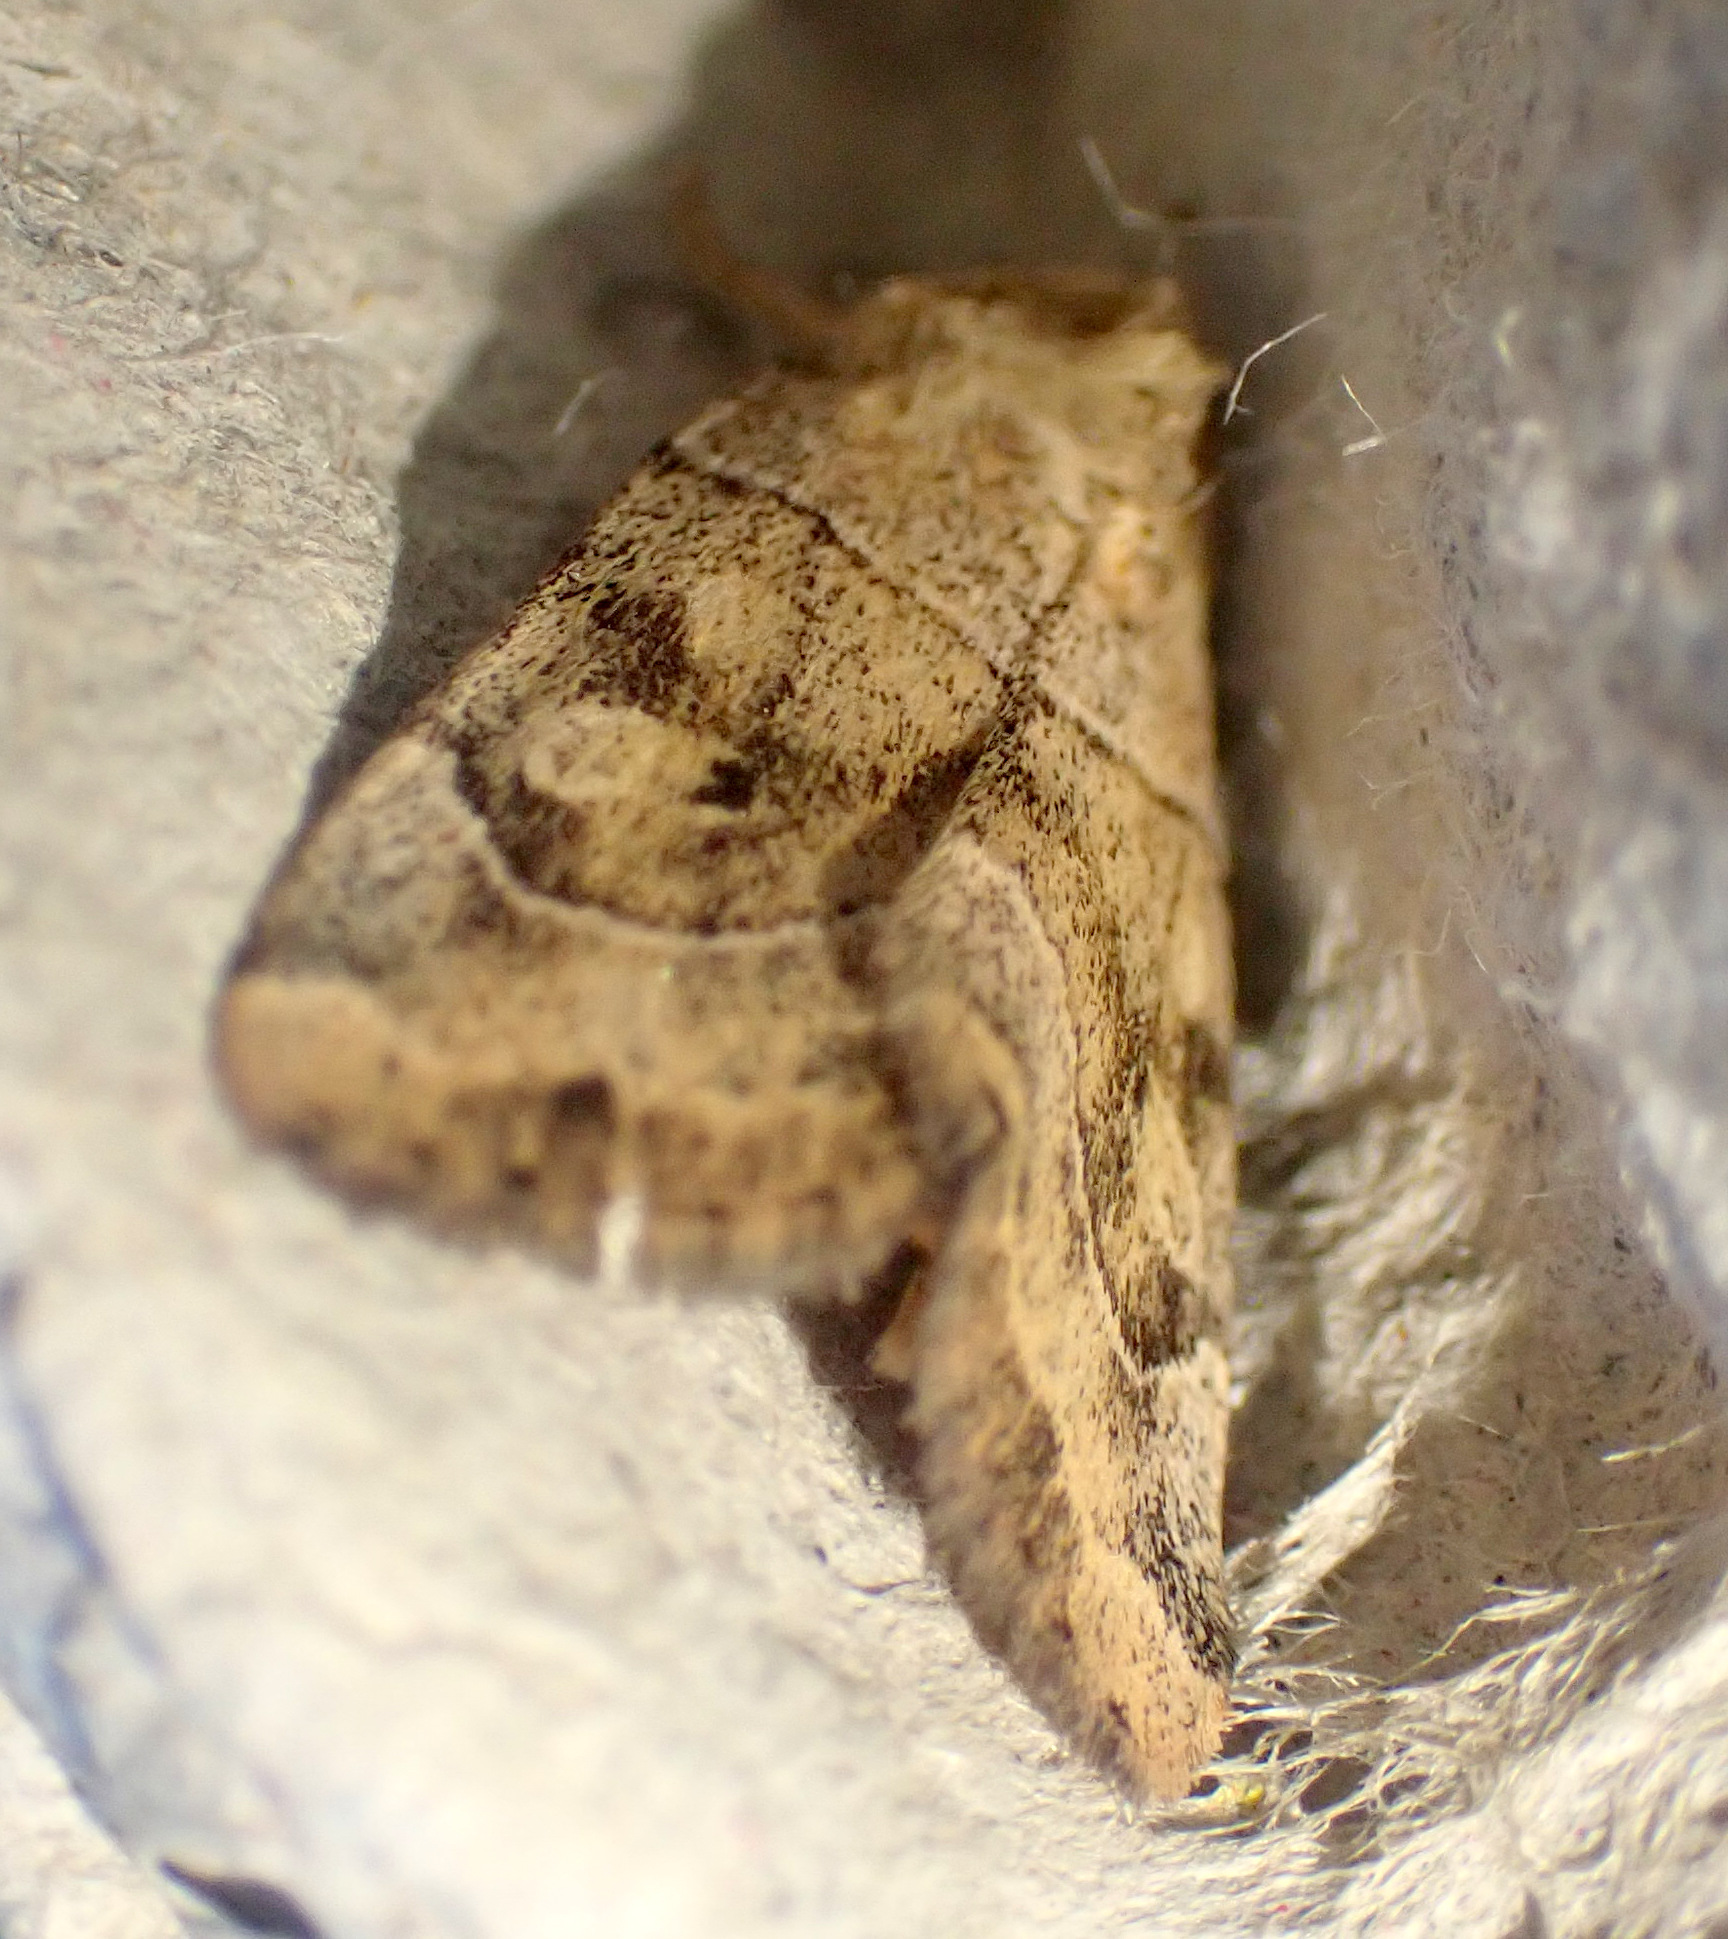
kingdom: Animalia
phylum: Arthropoda
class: Insecta
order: Lepidoptera
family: Noctuidae
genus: Cosmia
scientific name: Cosmia trapezina
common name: Dun-bar
